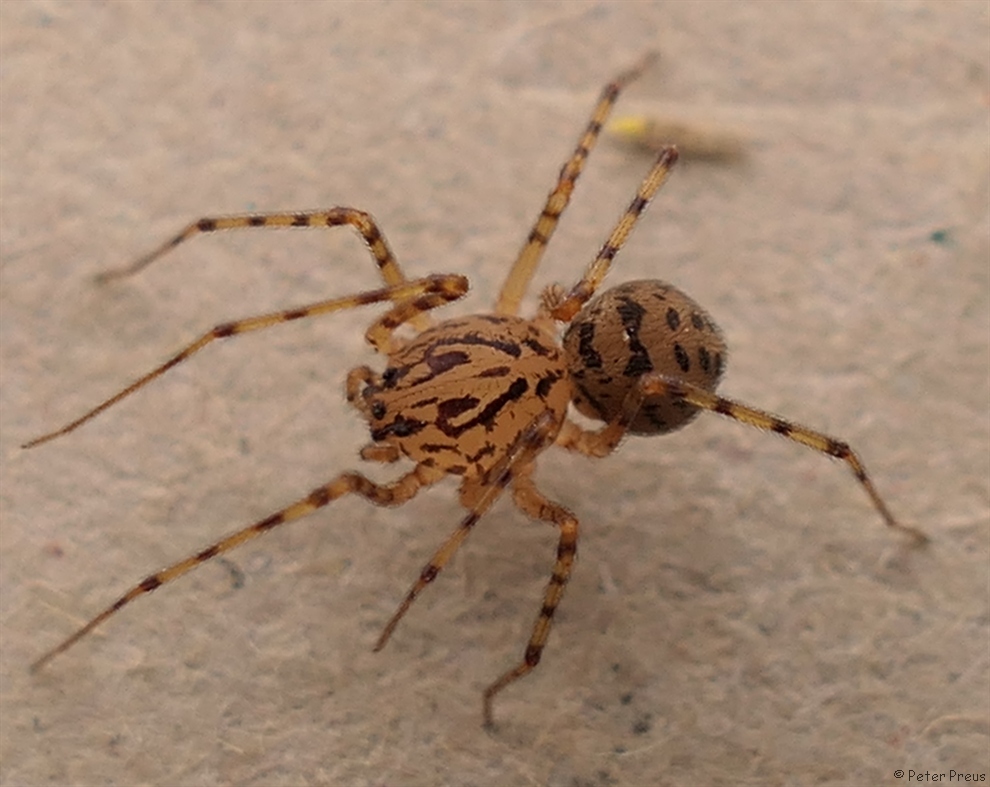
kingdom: Animalia
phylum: Arthropoda
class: Arachnida
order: Araneae
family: Scytodidae
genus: Scytodes
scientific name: Scytodes thoracica
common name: Spitting spider
